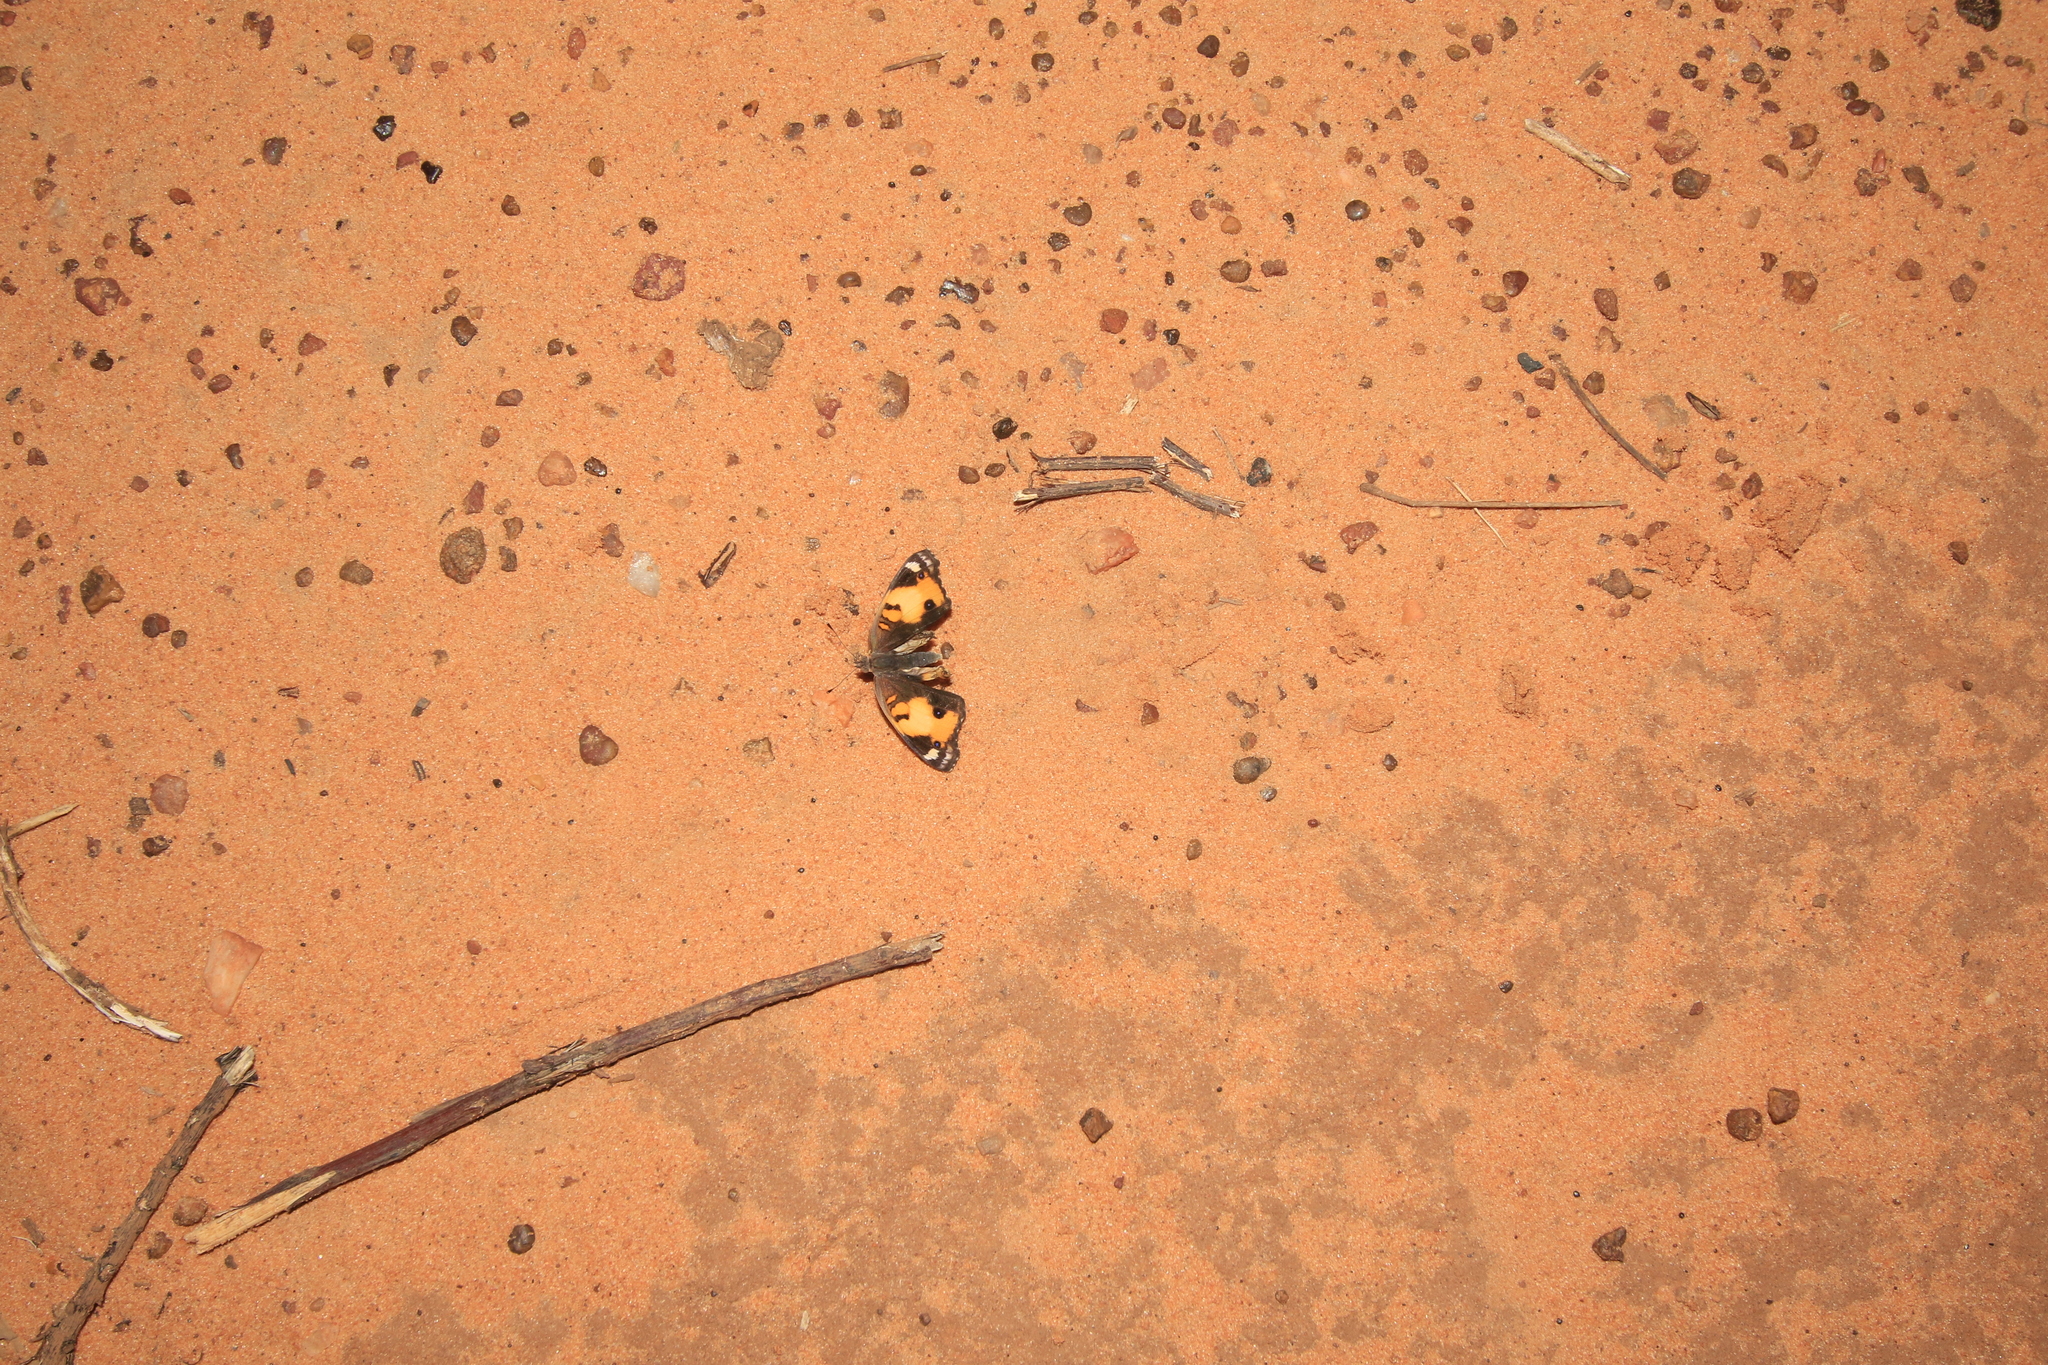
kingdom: Animalia
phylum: Arthropoda
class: Insecta
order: Lepidoptera
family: Nymphalidae
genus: Junonia
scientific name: Junonia hierta
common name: Yellow pansy
